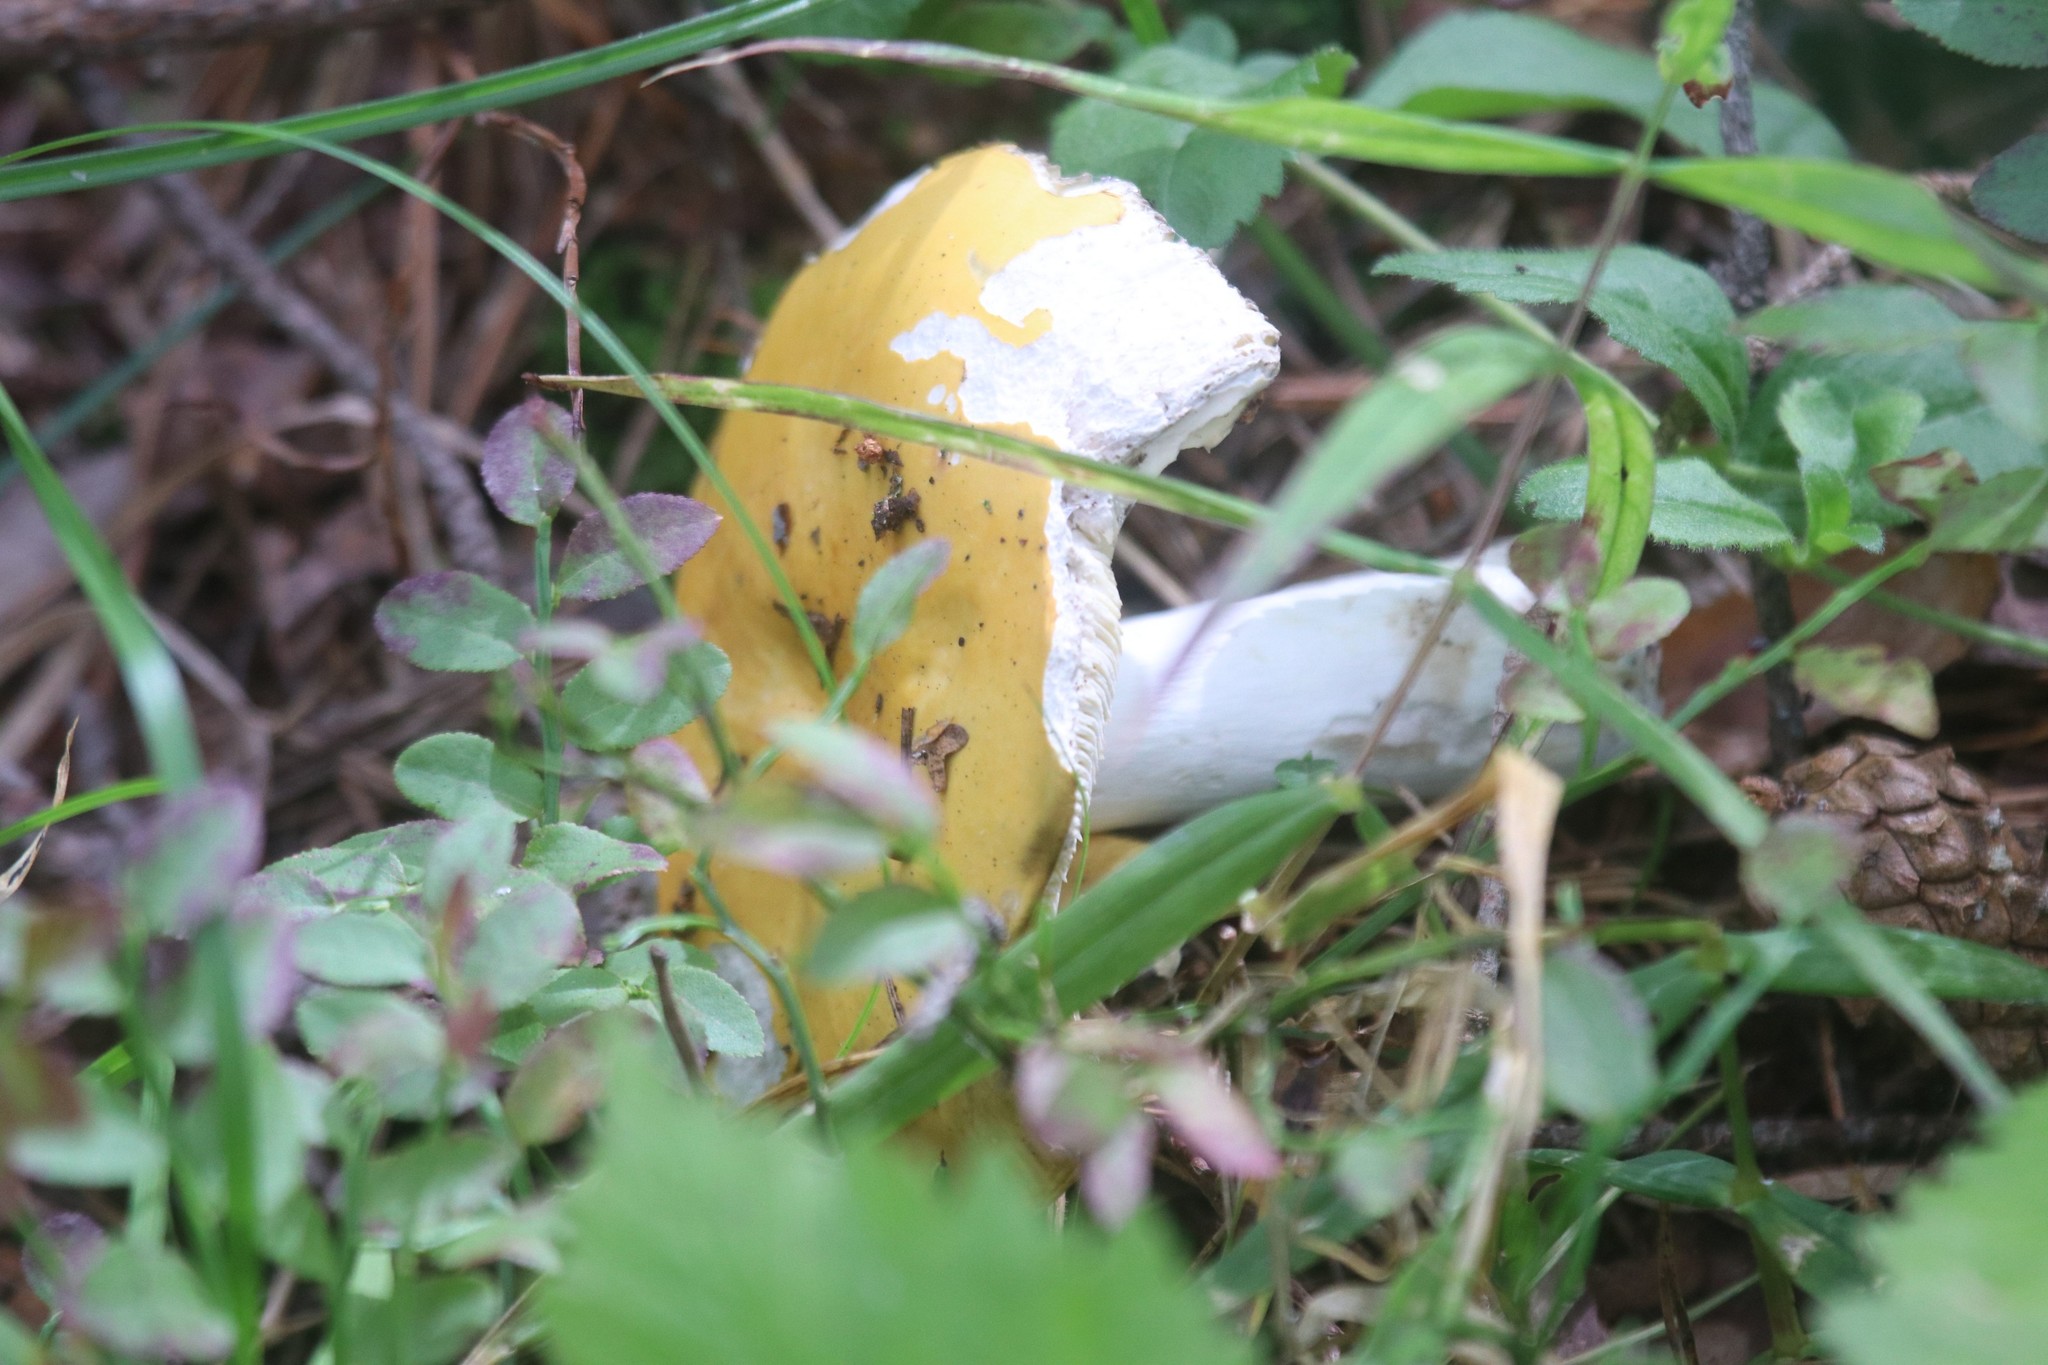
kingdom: Fungi
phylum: Basidiomycota
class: Agaricomycetes
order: Russulales
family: Russulaceae
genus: Russula
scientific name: Russula claroflava
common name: The yellow swamp brittlegill
